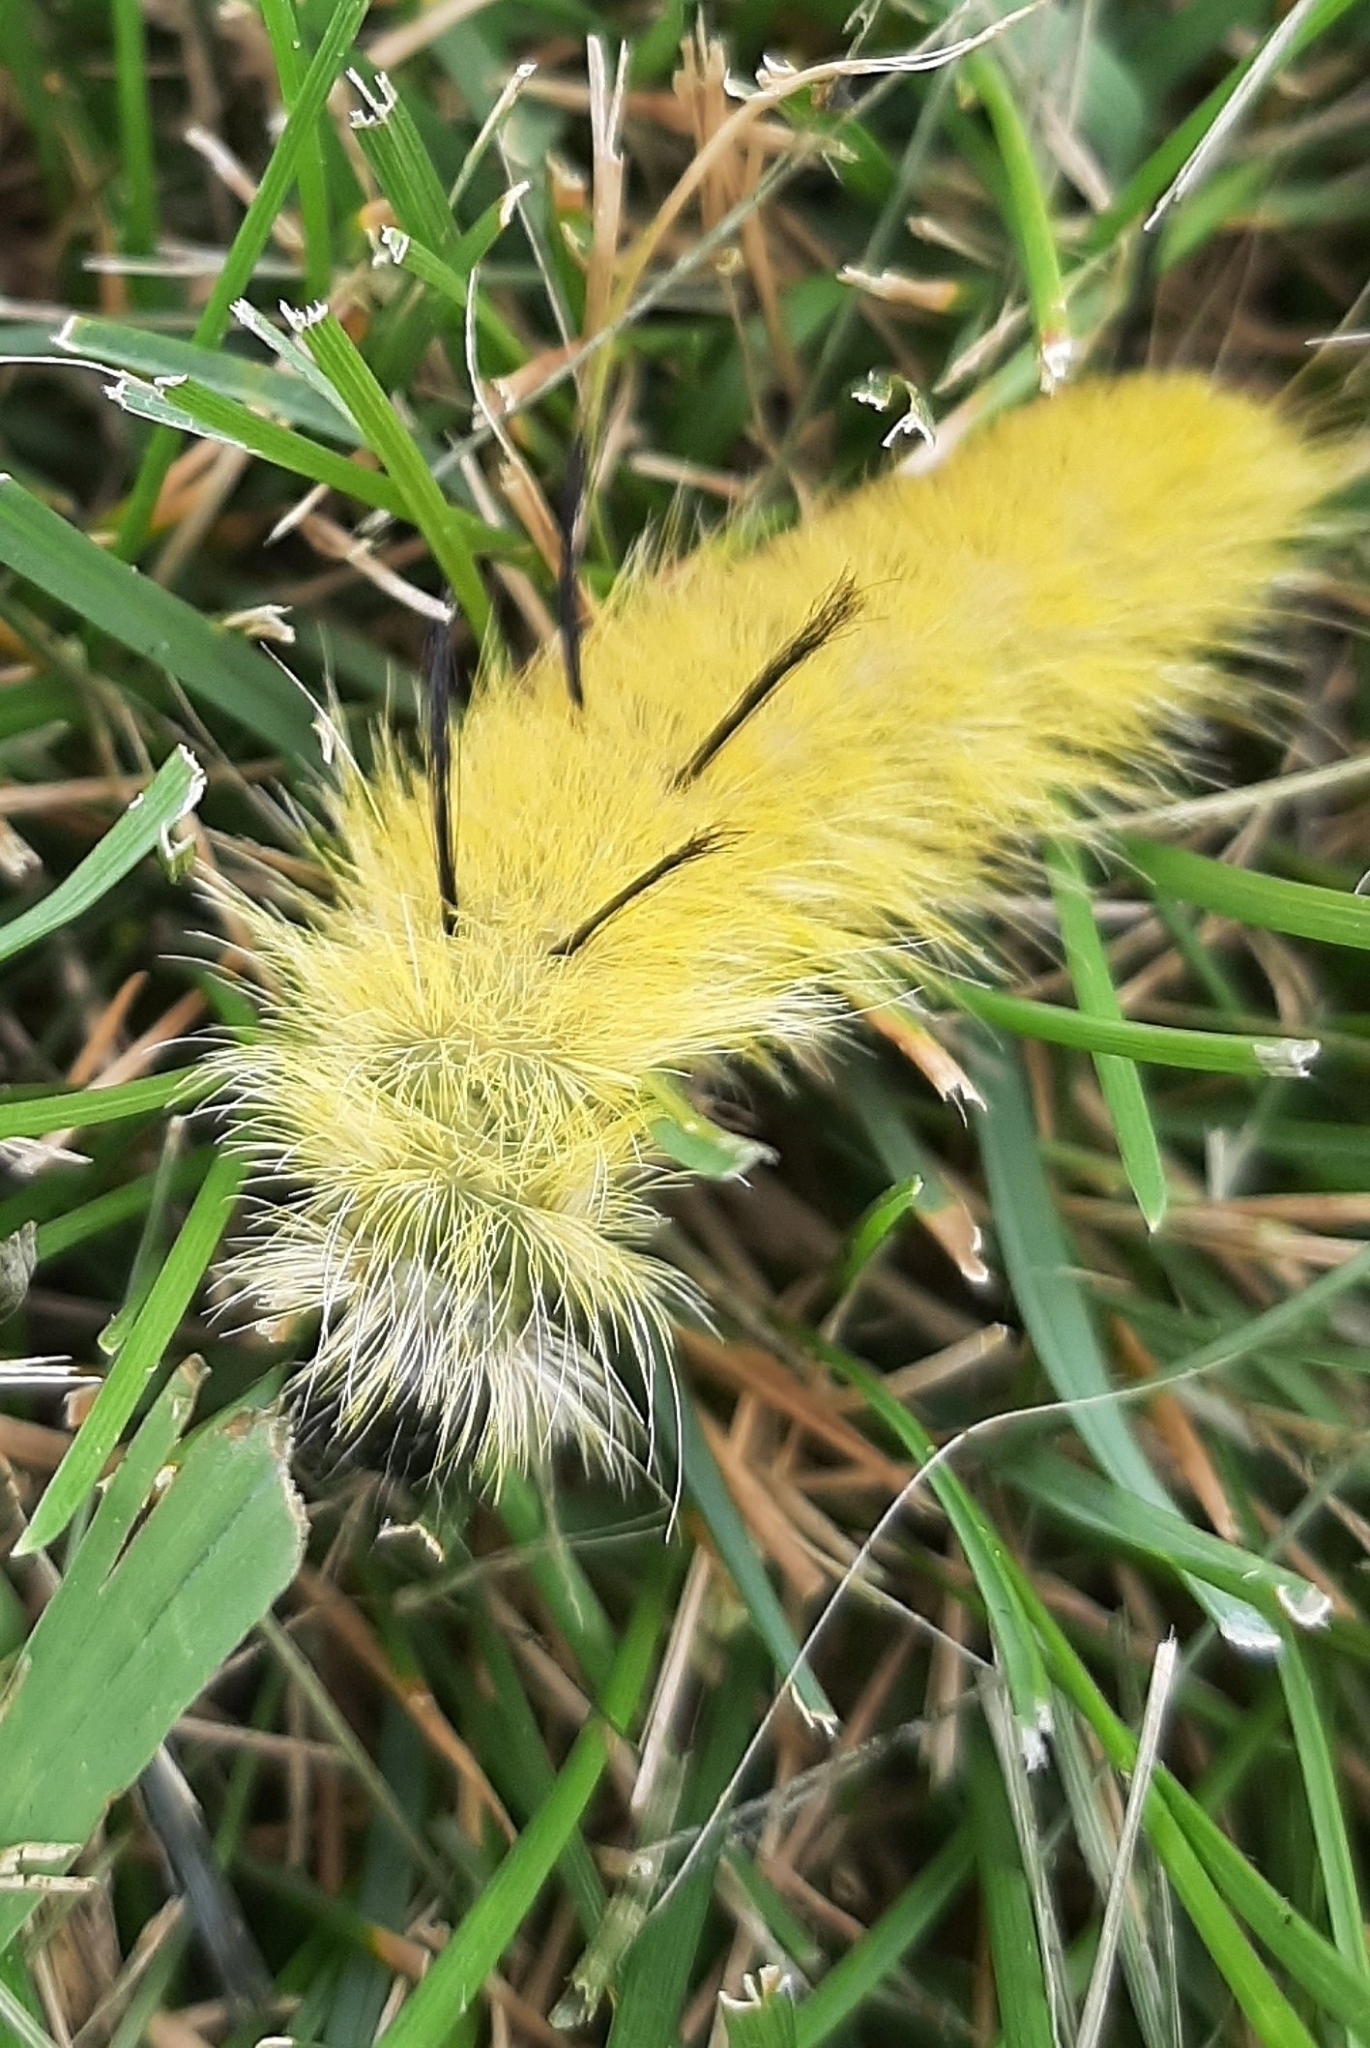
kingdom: Animalia
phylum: Arthropoda
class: Insecta
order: Lepidoptera
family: Noctuidae
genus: Acronicta
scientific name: Acronicta americana
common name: American dagger
